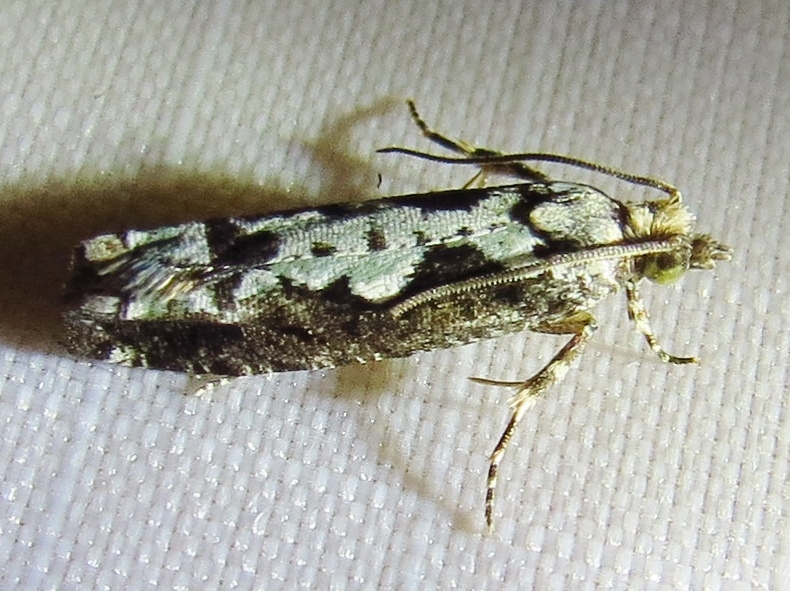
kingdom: Animalia
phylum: Arthropoda
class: Insecta
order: Lepidoptera
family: Tortricidae
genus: Chimoptesis
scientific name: Chimoptesis pennsylvaniana
